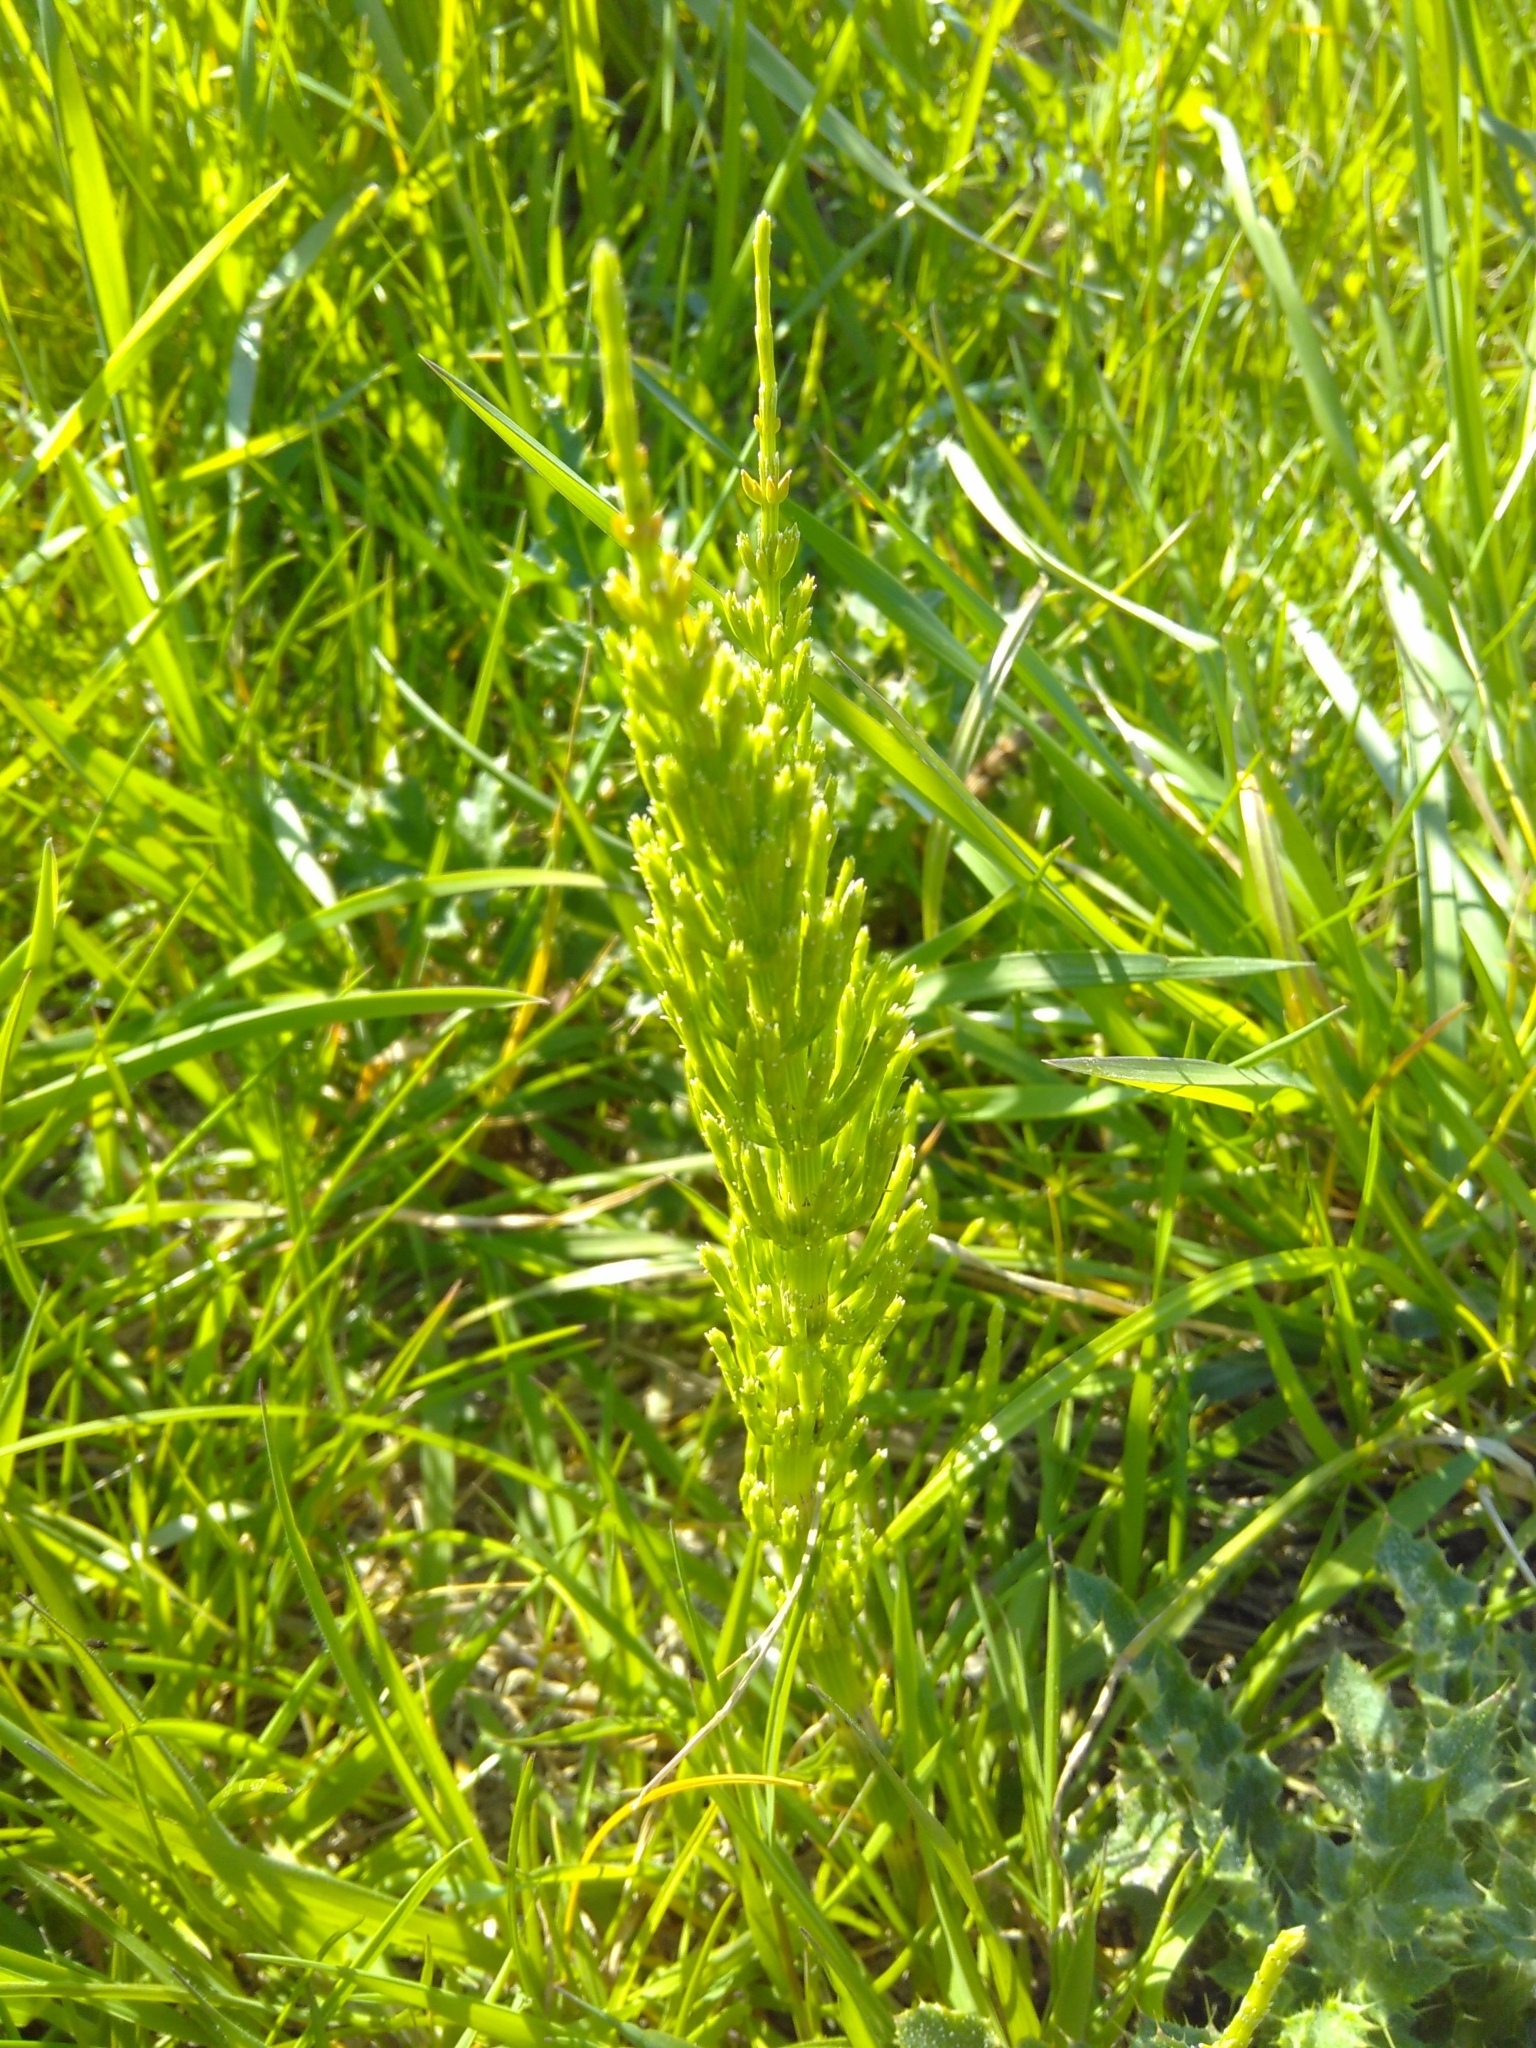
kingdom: Plantae
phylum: Tracheophyta
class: Polypodiopsida
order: Equisetales
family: Equisetaceae
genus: Equisetum
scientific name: Equisetum arvense
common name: Field horsetail
